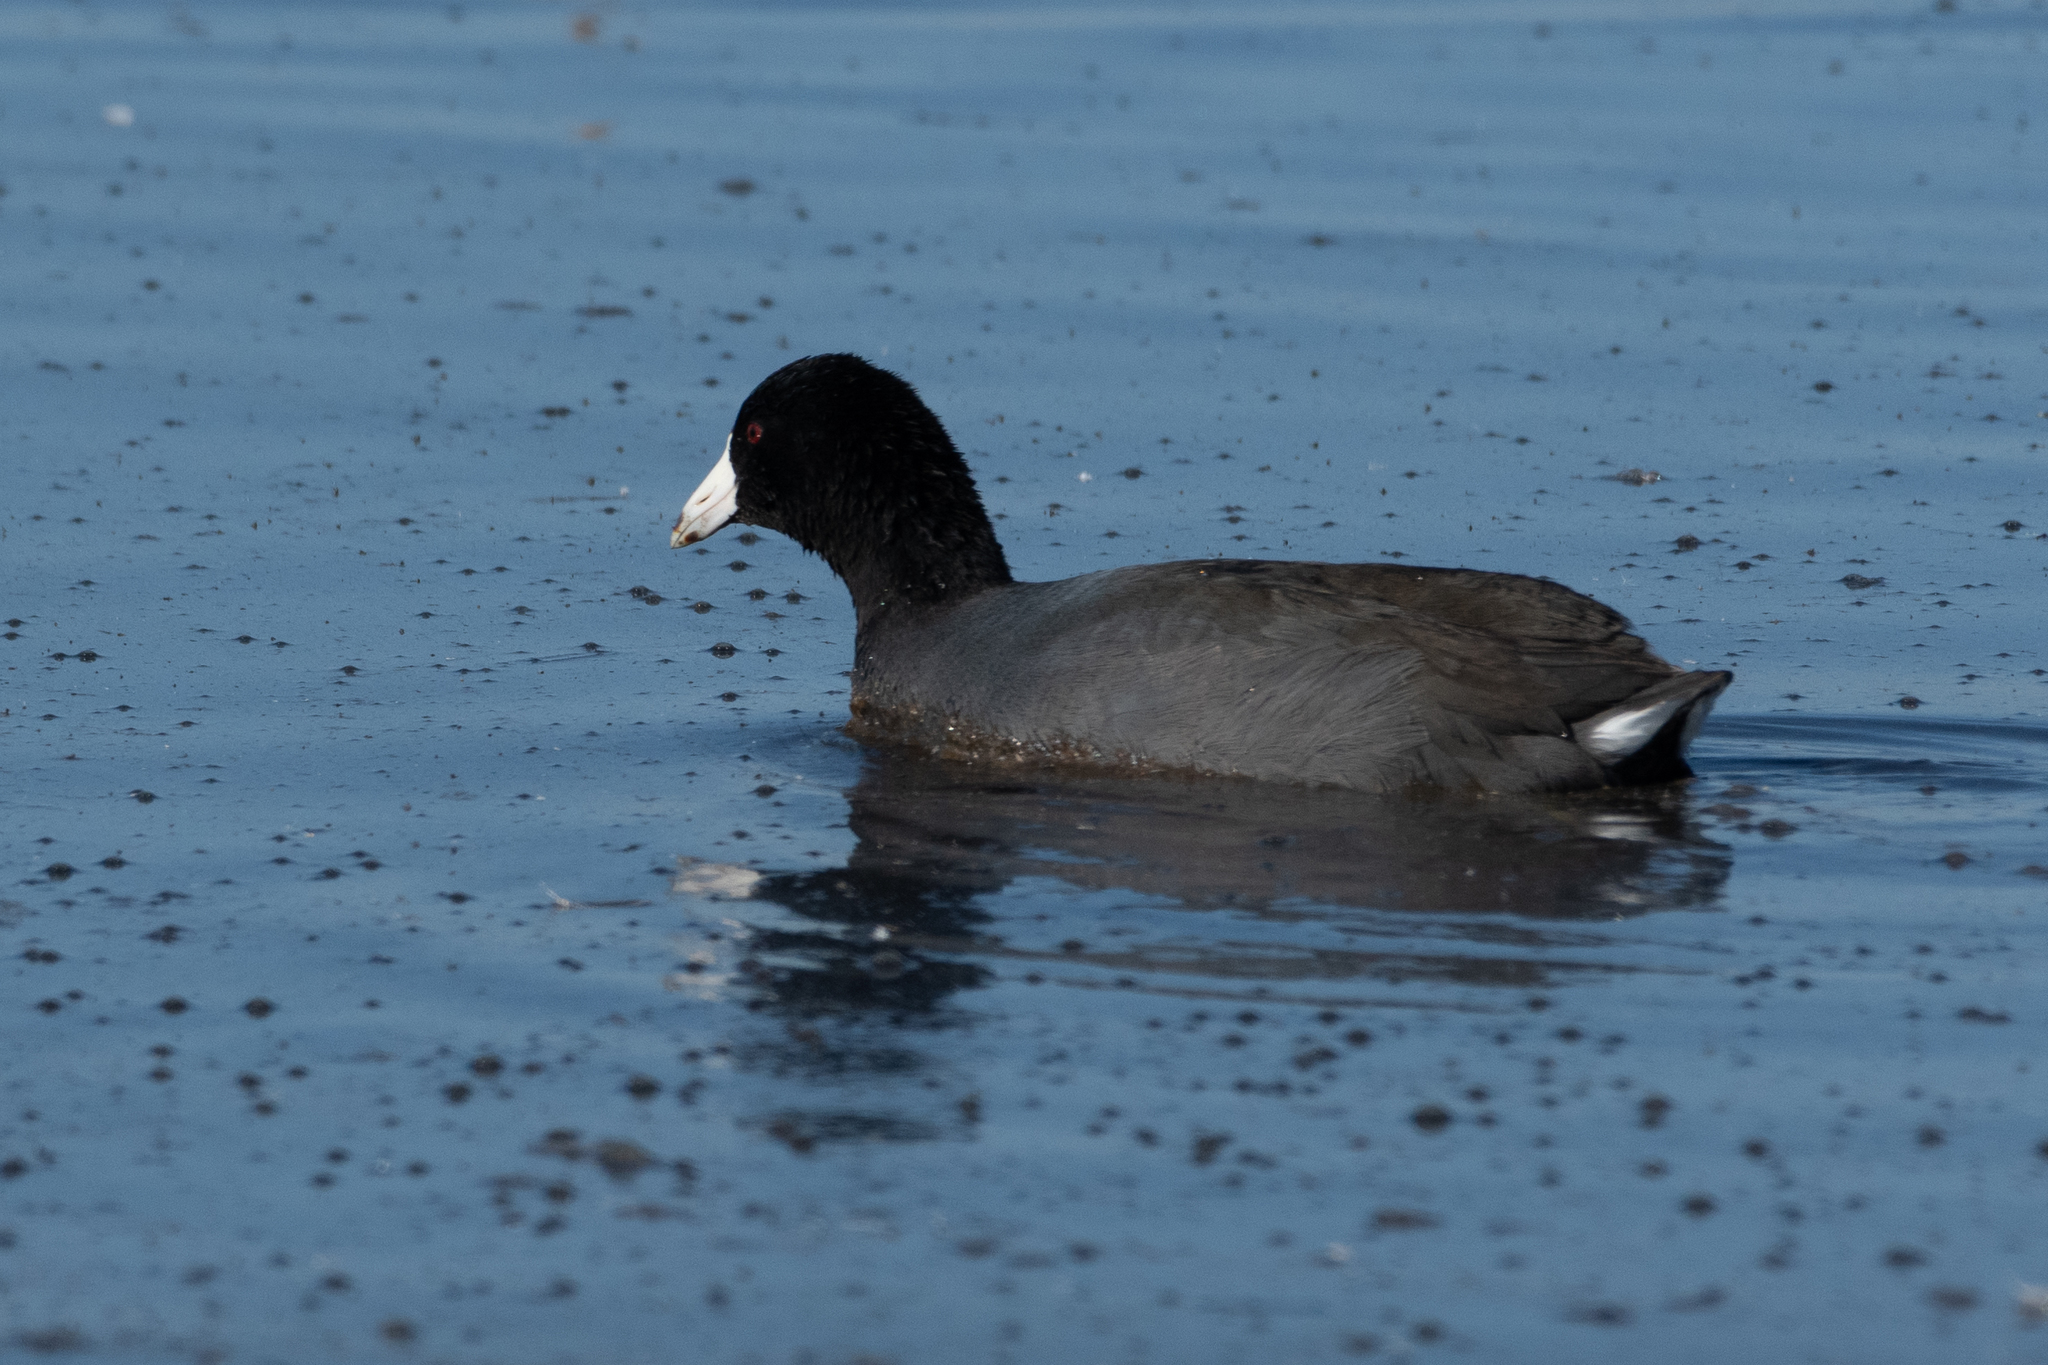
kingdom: Animalia
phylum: Chordata
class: Aves
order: Gruiformes
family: Rallidae
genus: Fulica
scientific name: Fulica americana
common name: American coot
